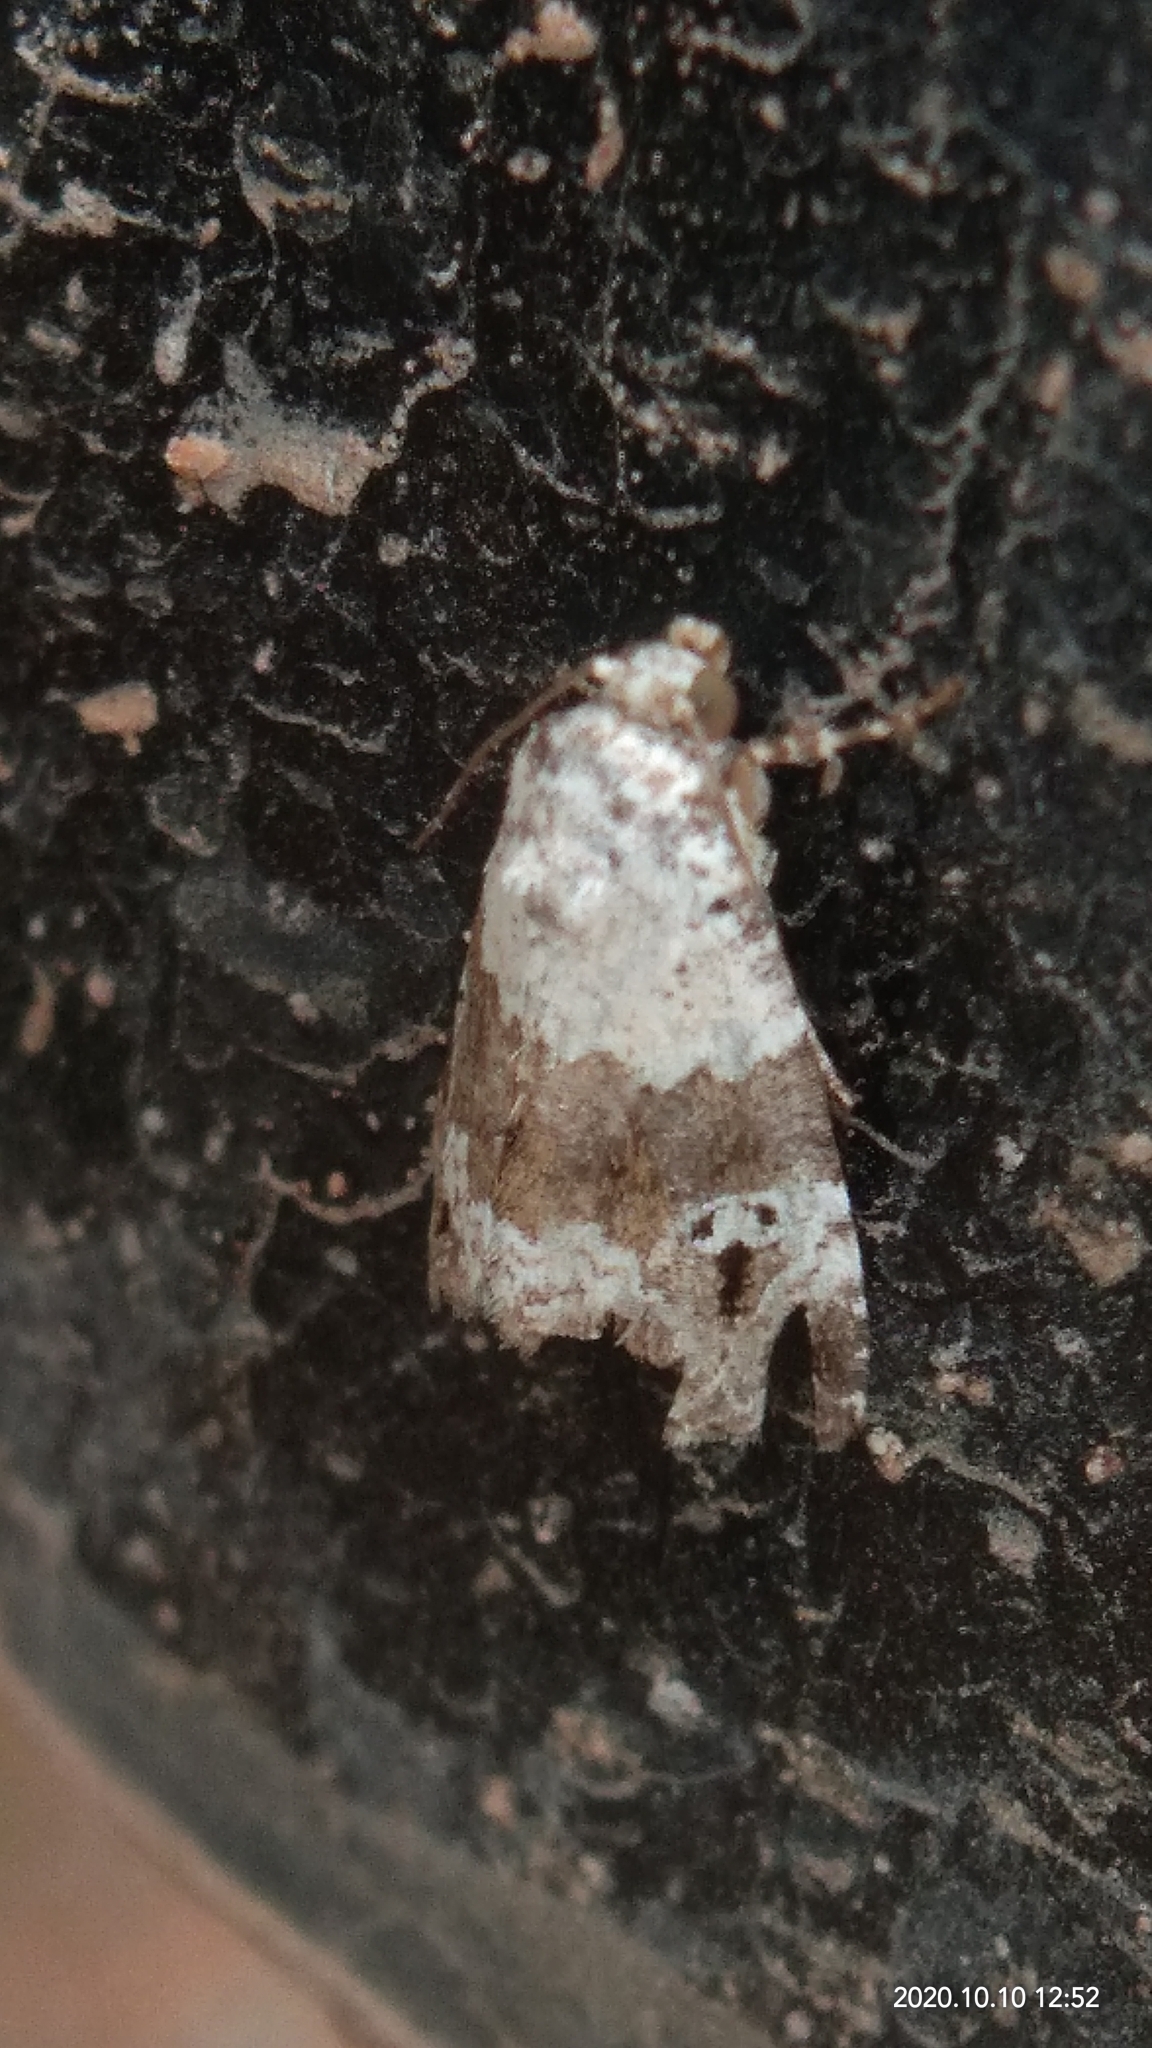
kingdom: Animalia
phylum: Arthropoda
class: Insecta
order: Lepidoptera
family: Noctuidae
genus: Maliattha
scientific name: Maliattha signifera
